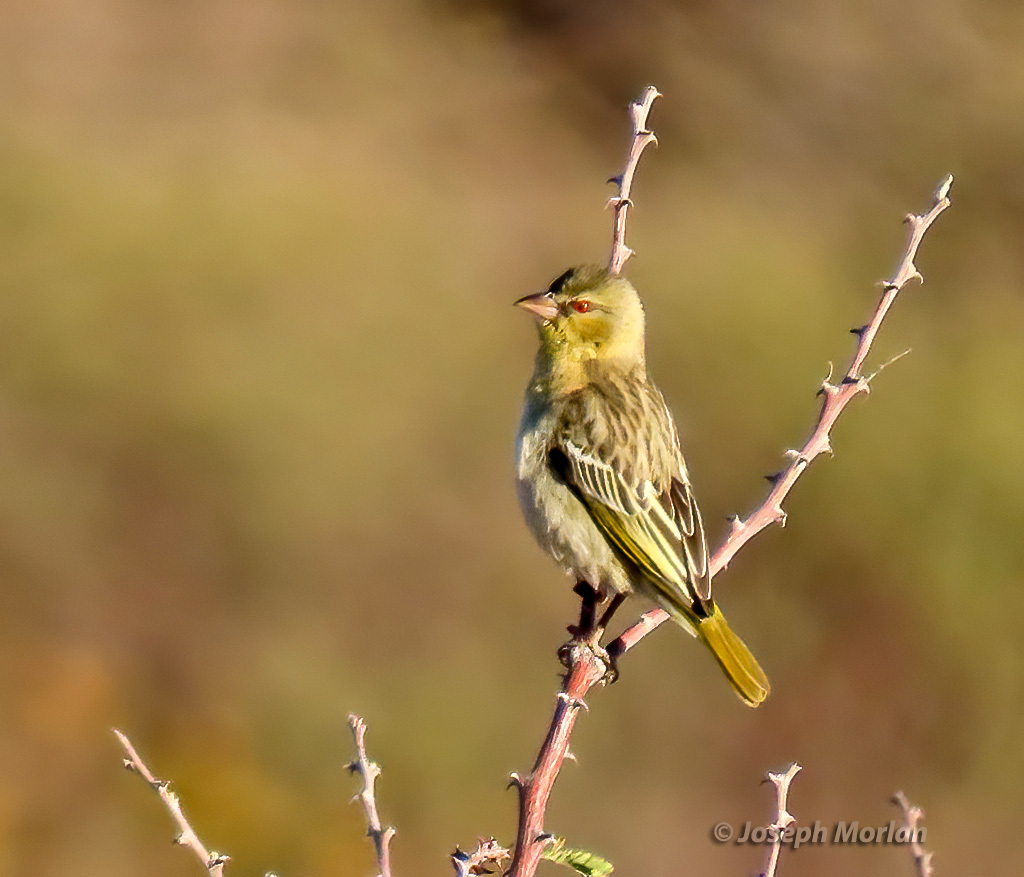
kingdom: Animalia
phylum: Chordata
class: Aves
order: Passeriformes
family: Ploceidae
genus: Ploceus
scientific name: Ploceus velatus
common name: Southern masked weaver
